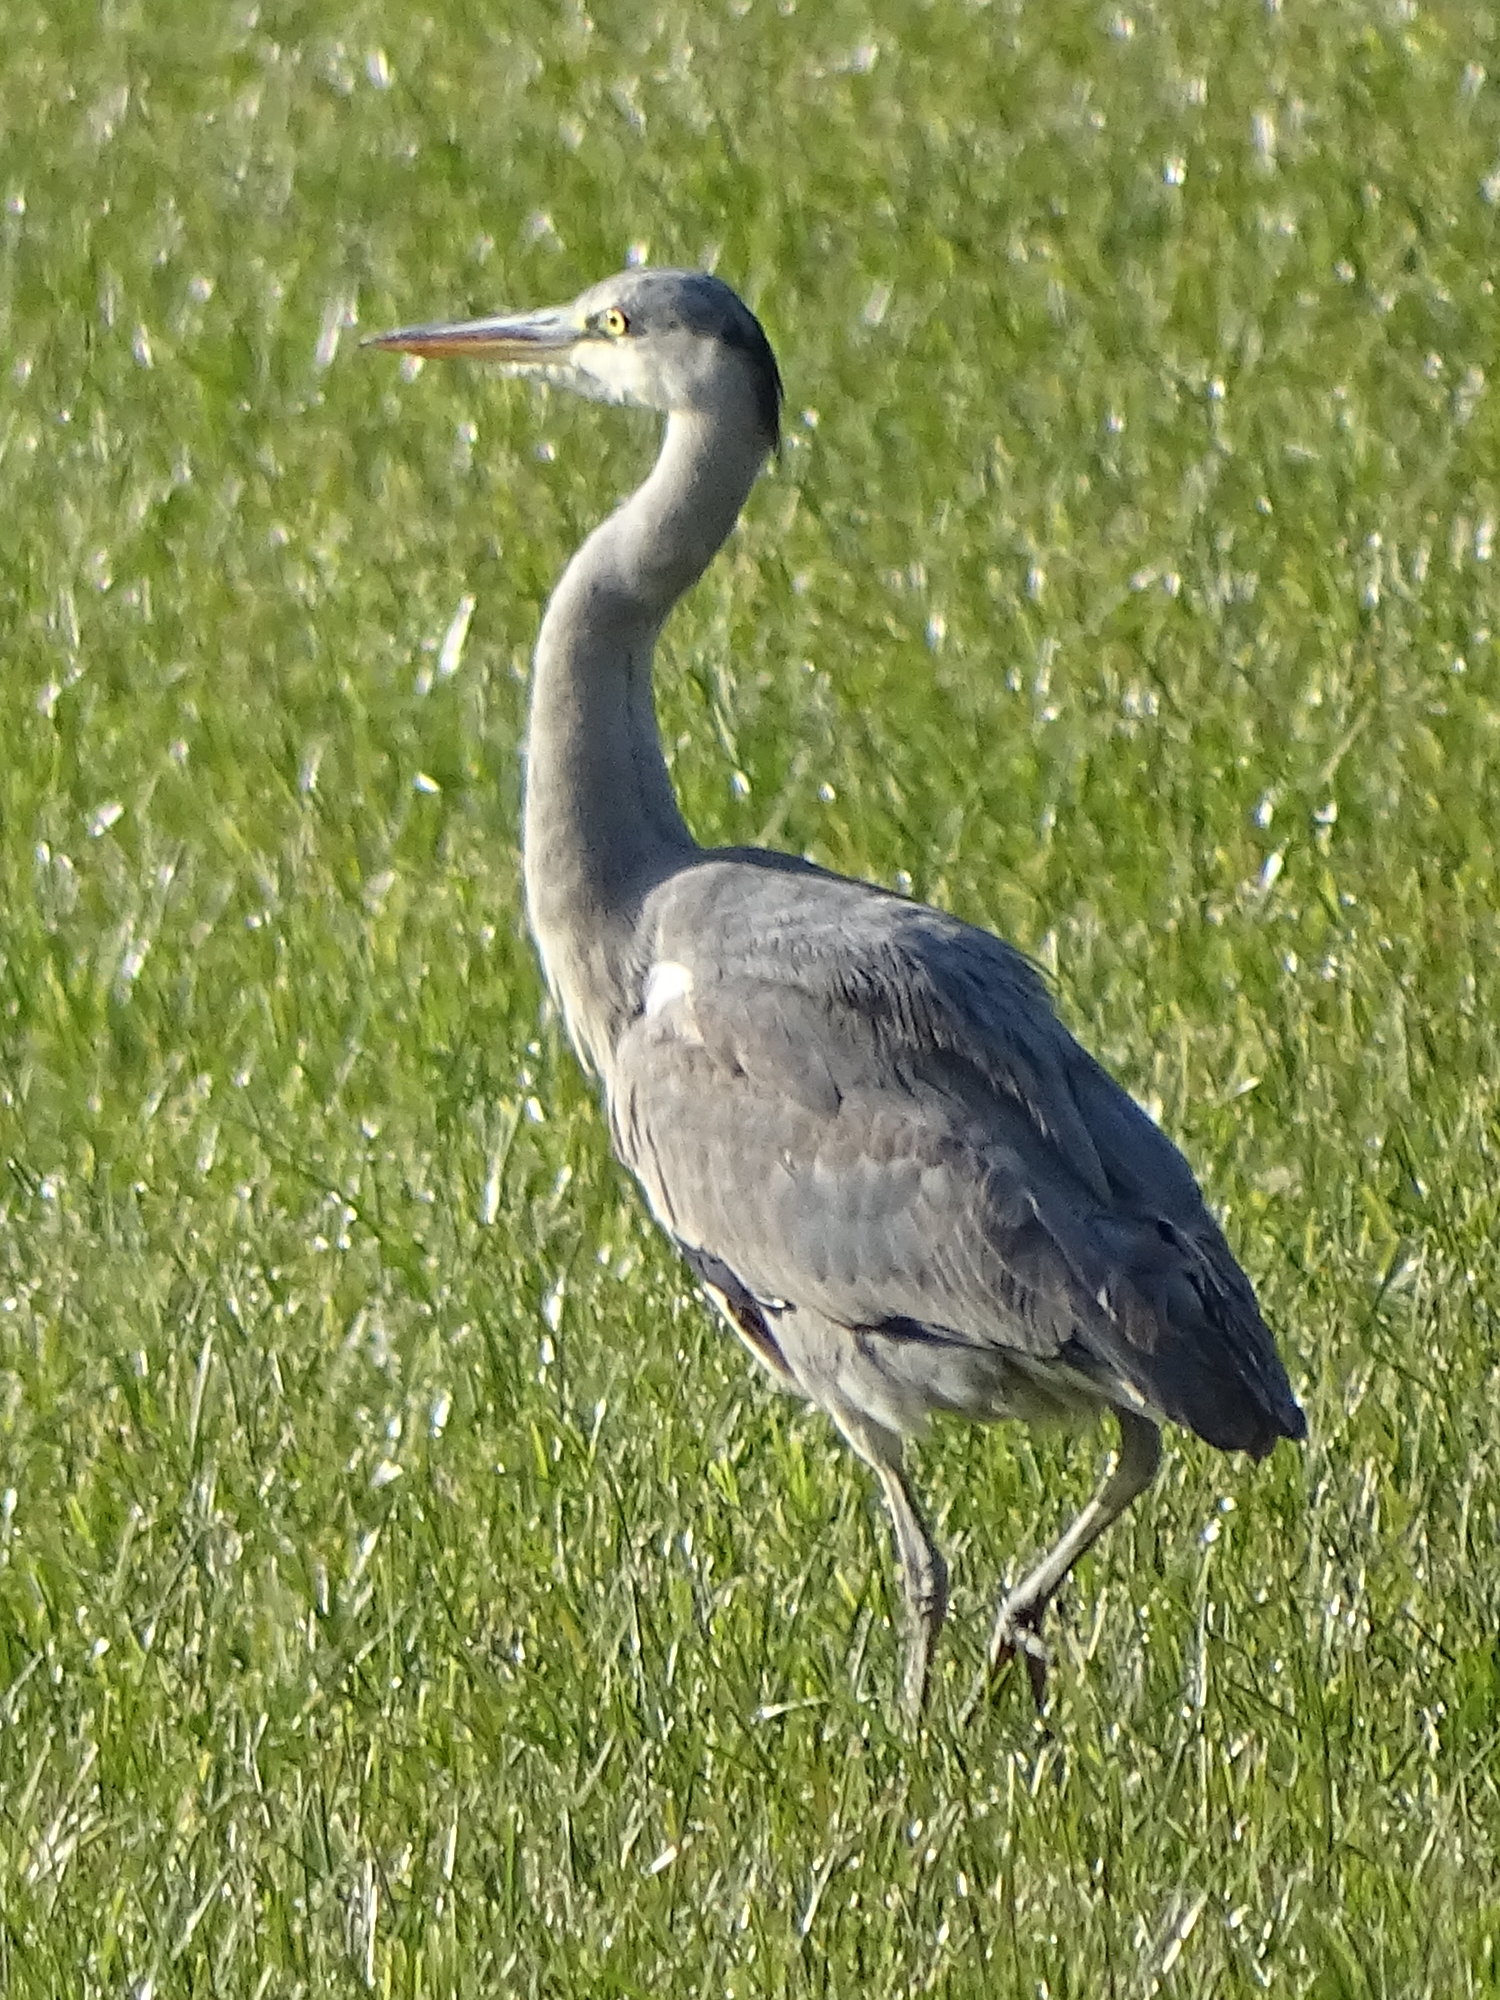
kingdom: Animalia
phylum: Chordata
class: Aves
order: Pelecaniformes
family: Ardeidae
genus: Ardea
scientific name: Ardea cinerea
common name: Grey heron
